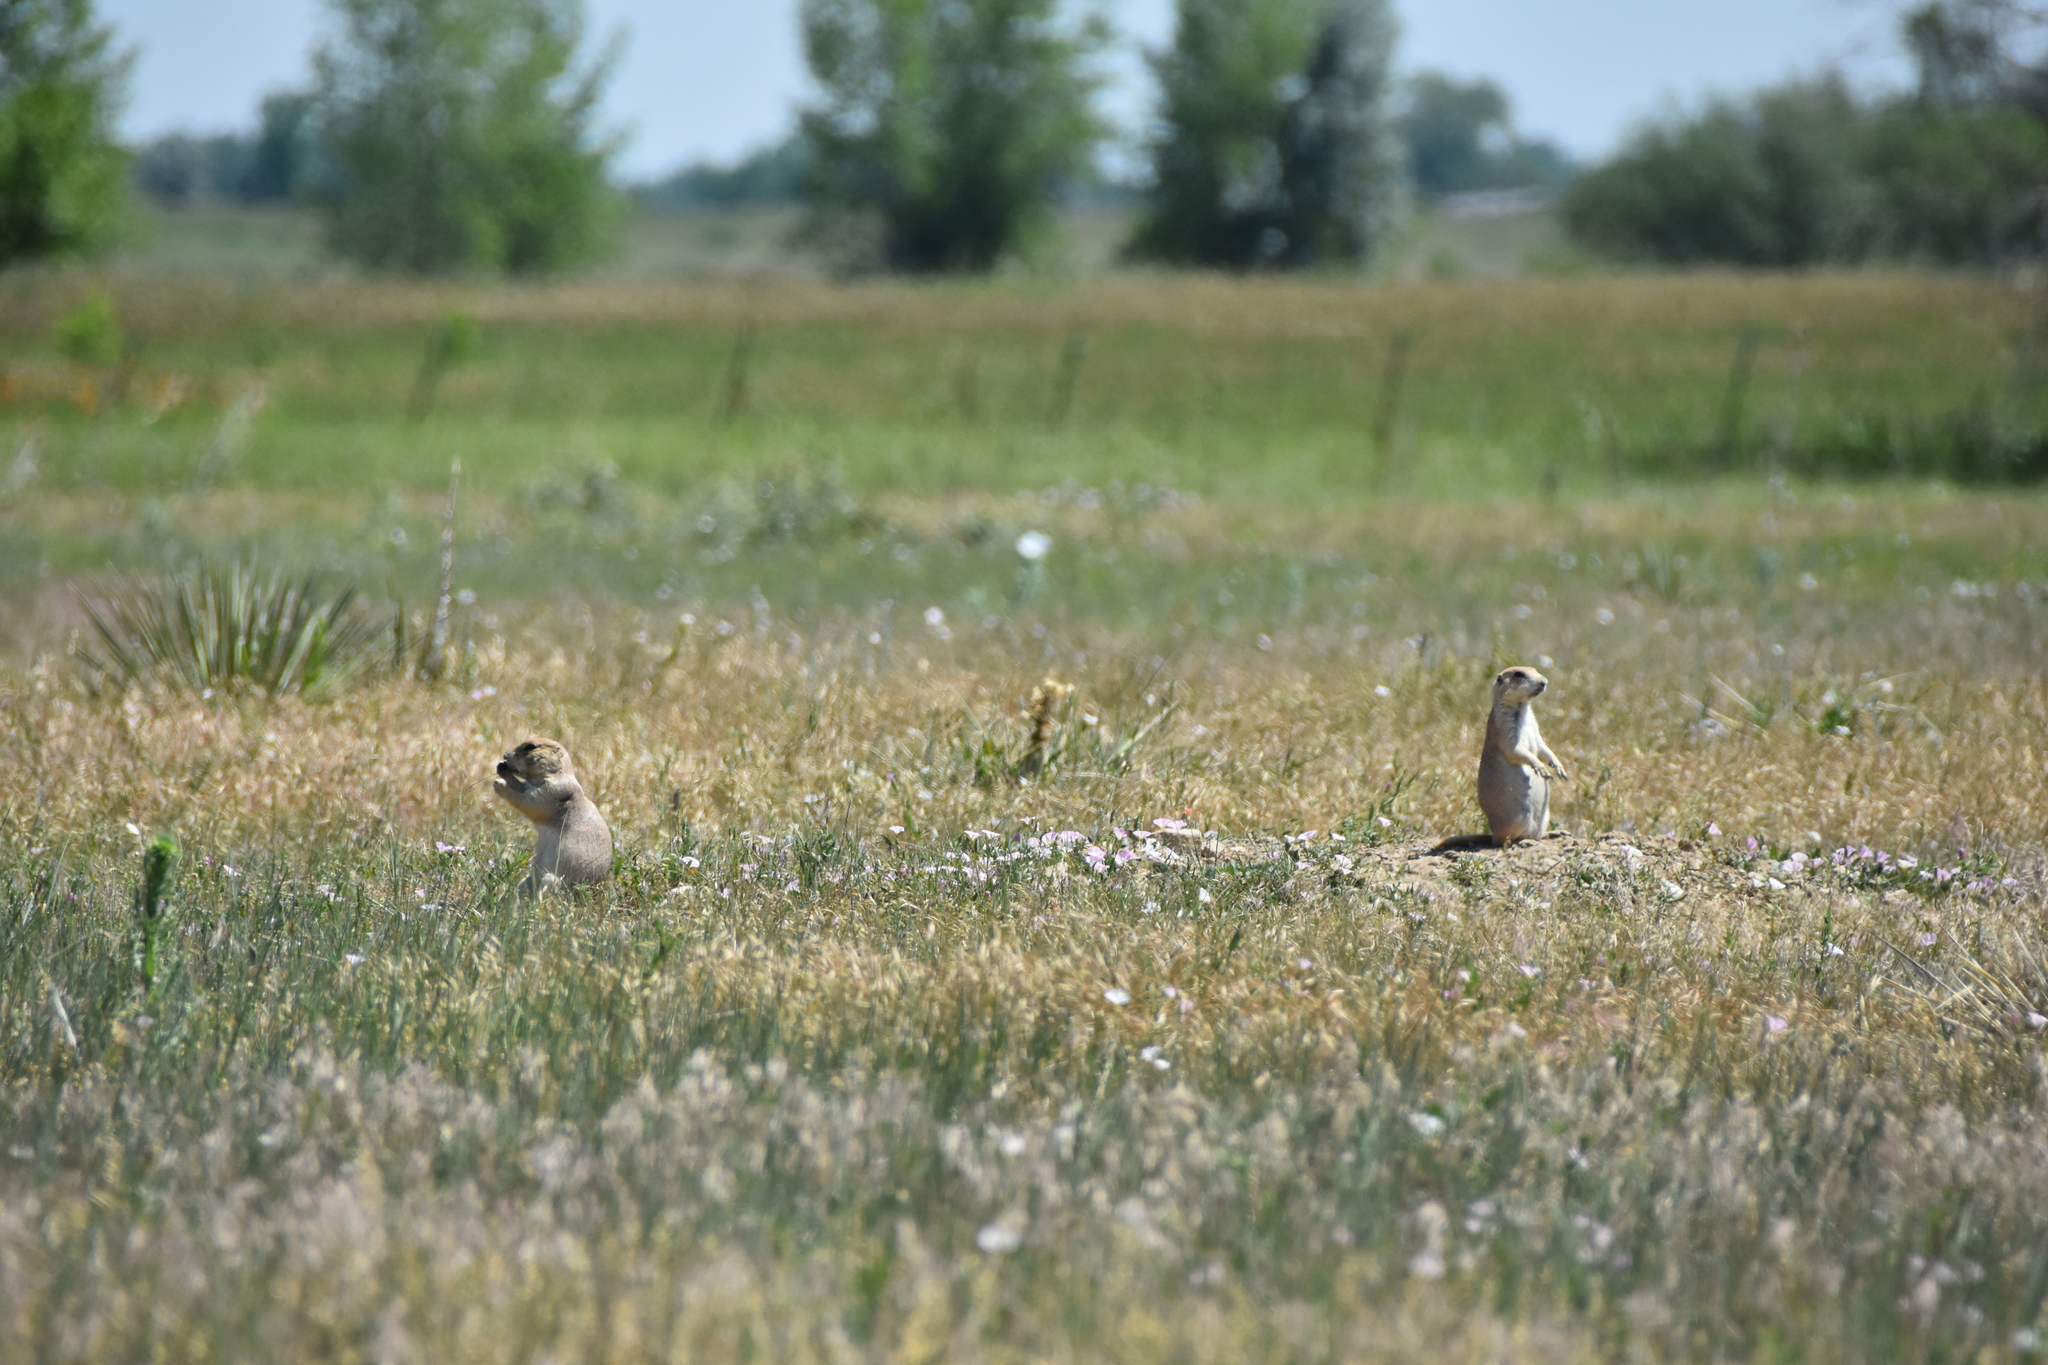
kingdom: Animalia
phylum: Chordata
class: Mammalia
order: Rodentia
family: Sciuridae
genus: Cynomys
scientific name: Cynomys ludovicianus
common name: Black-tailed prairie dog
